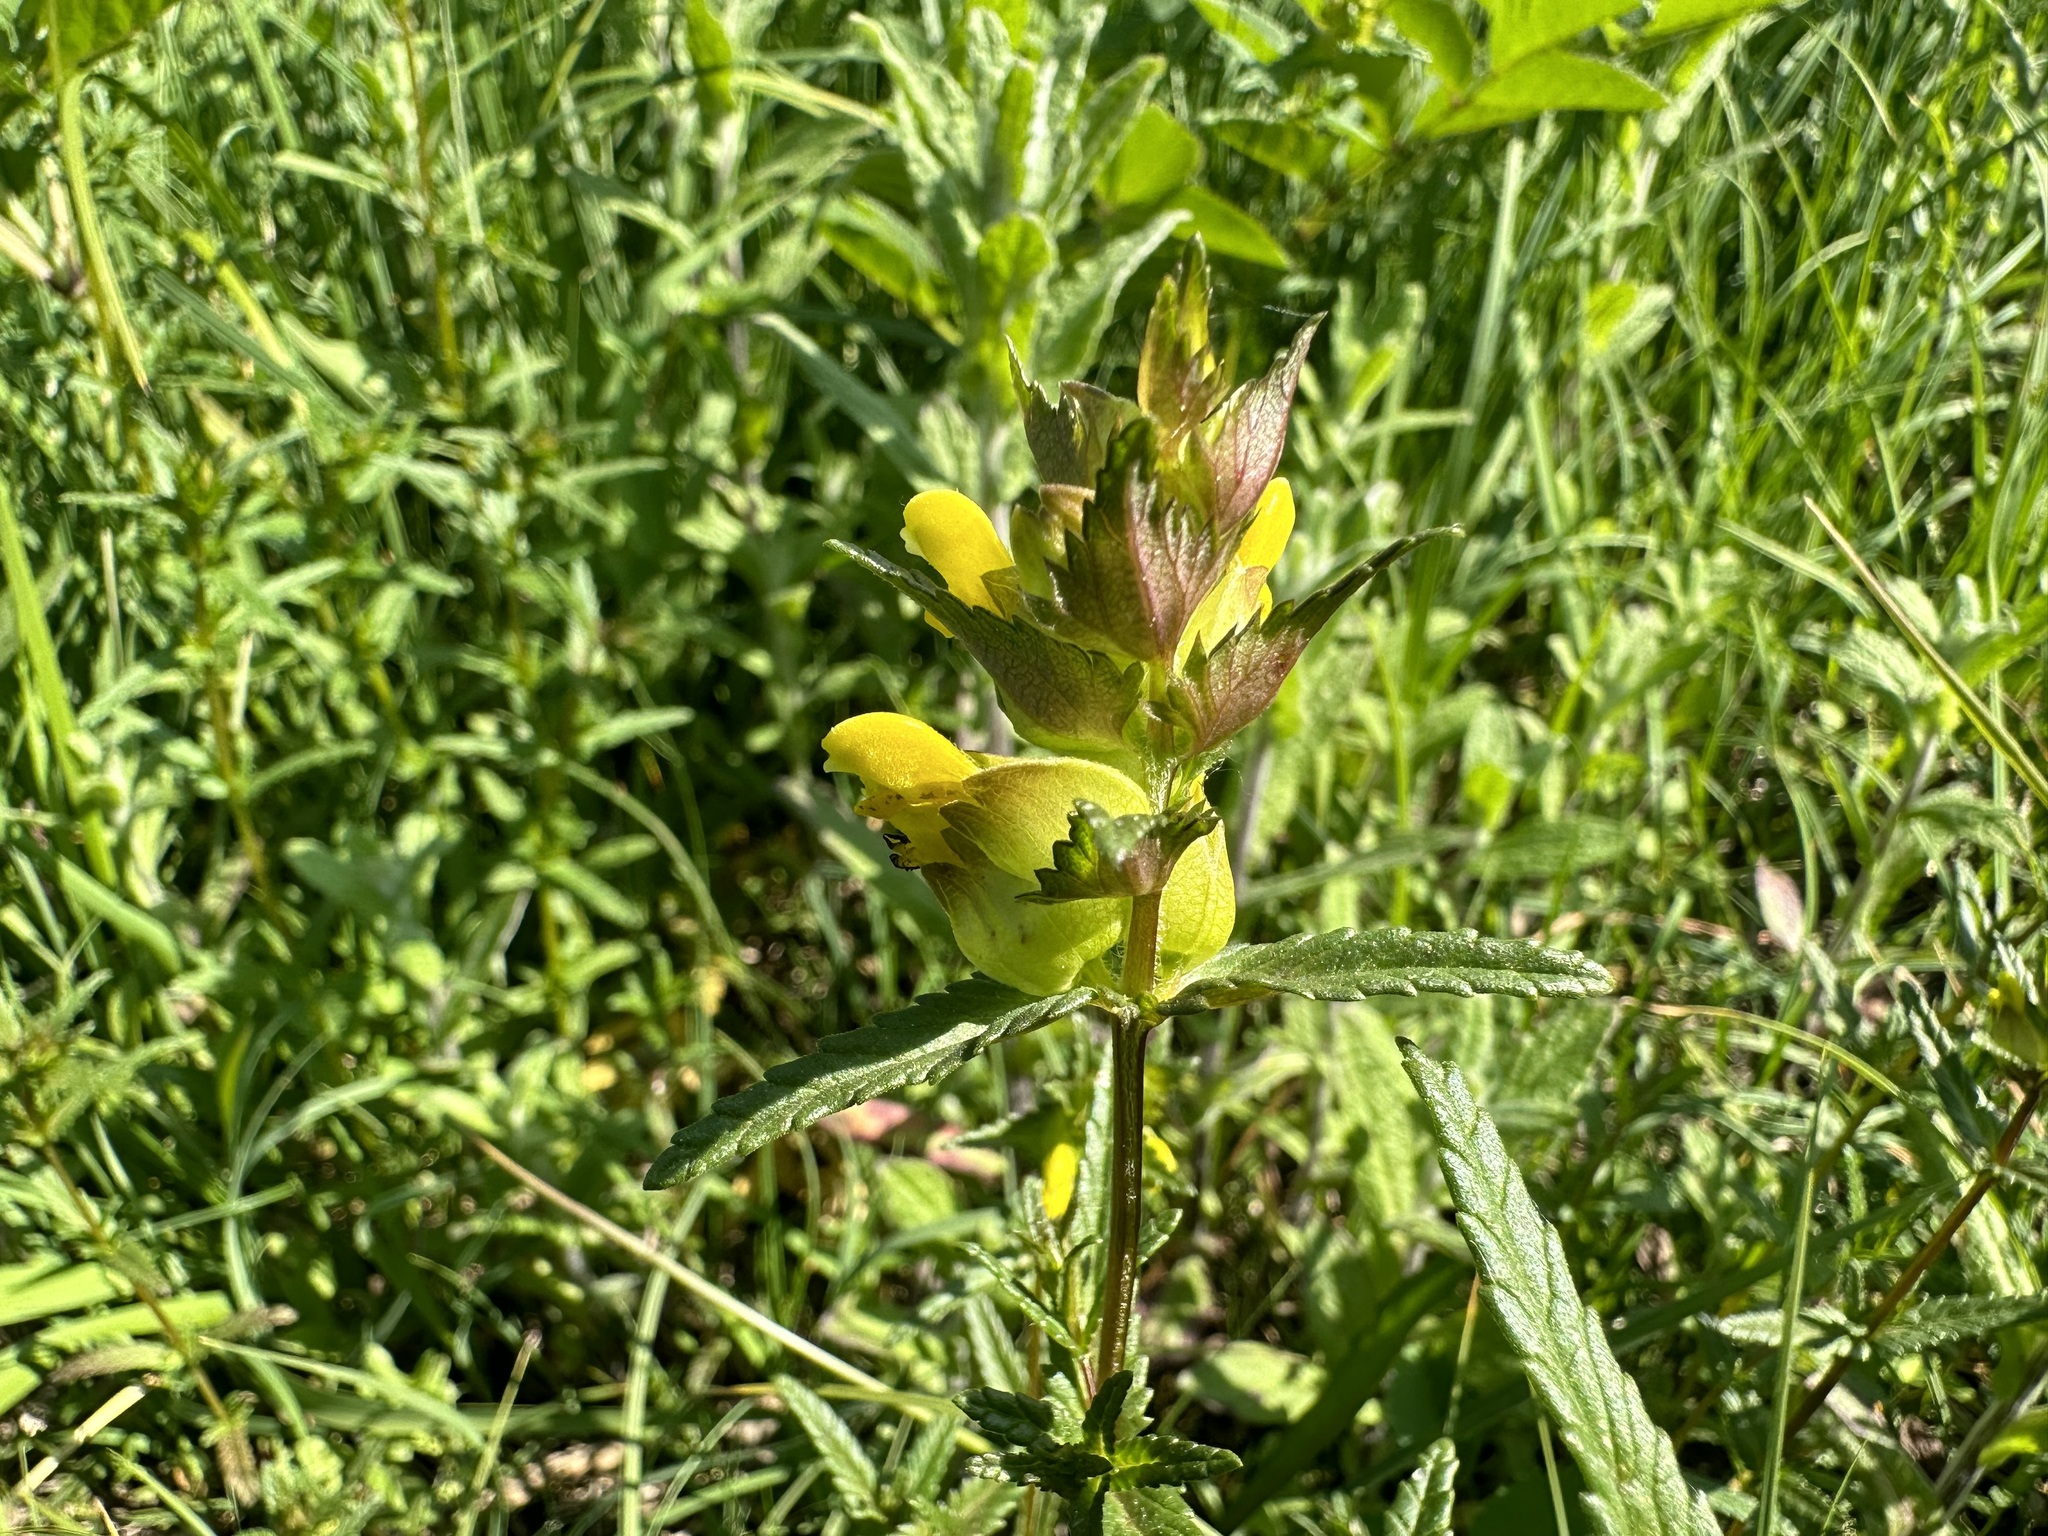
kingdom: Plantae
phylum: Tracheophyta
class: Magnoliopsida
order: Lamiales
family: Orobanchaceae
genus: Rhinanthus
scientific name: Rhinanthus minor
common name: Yellow-rattle
